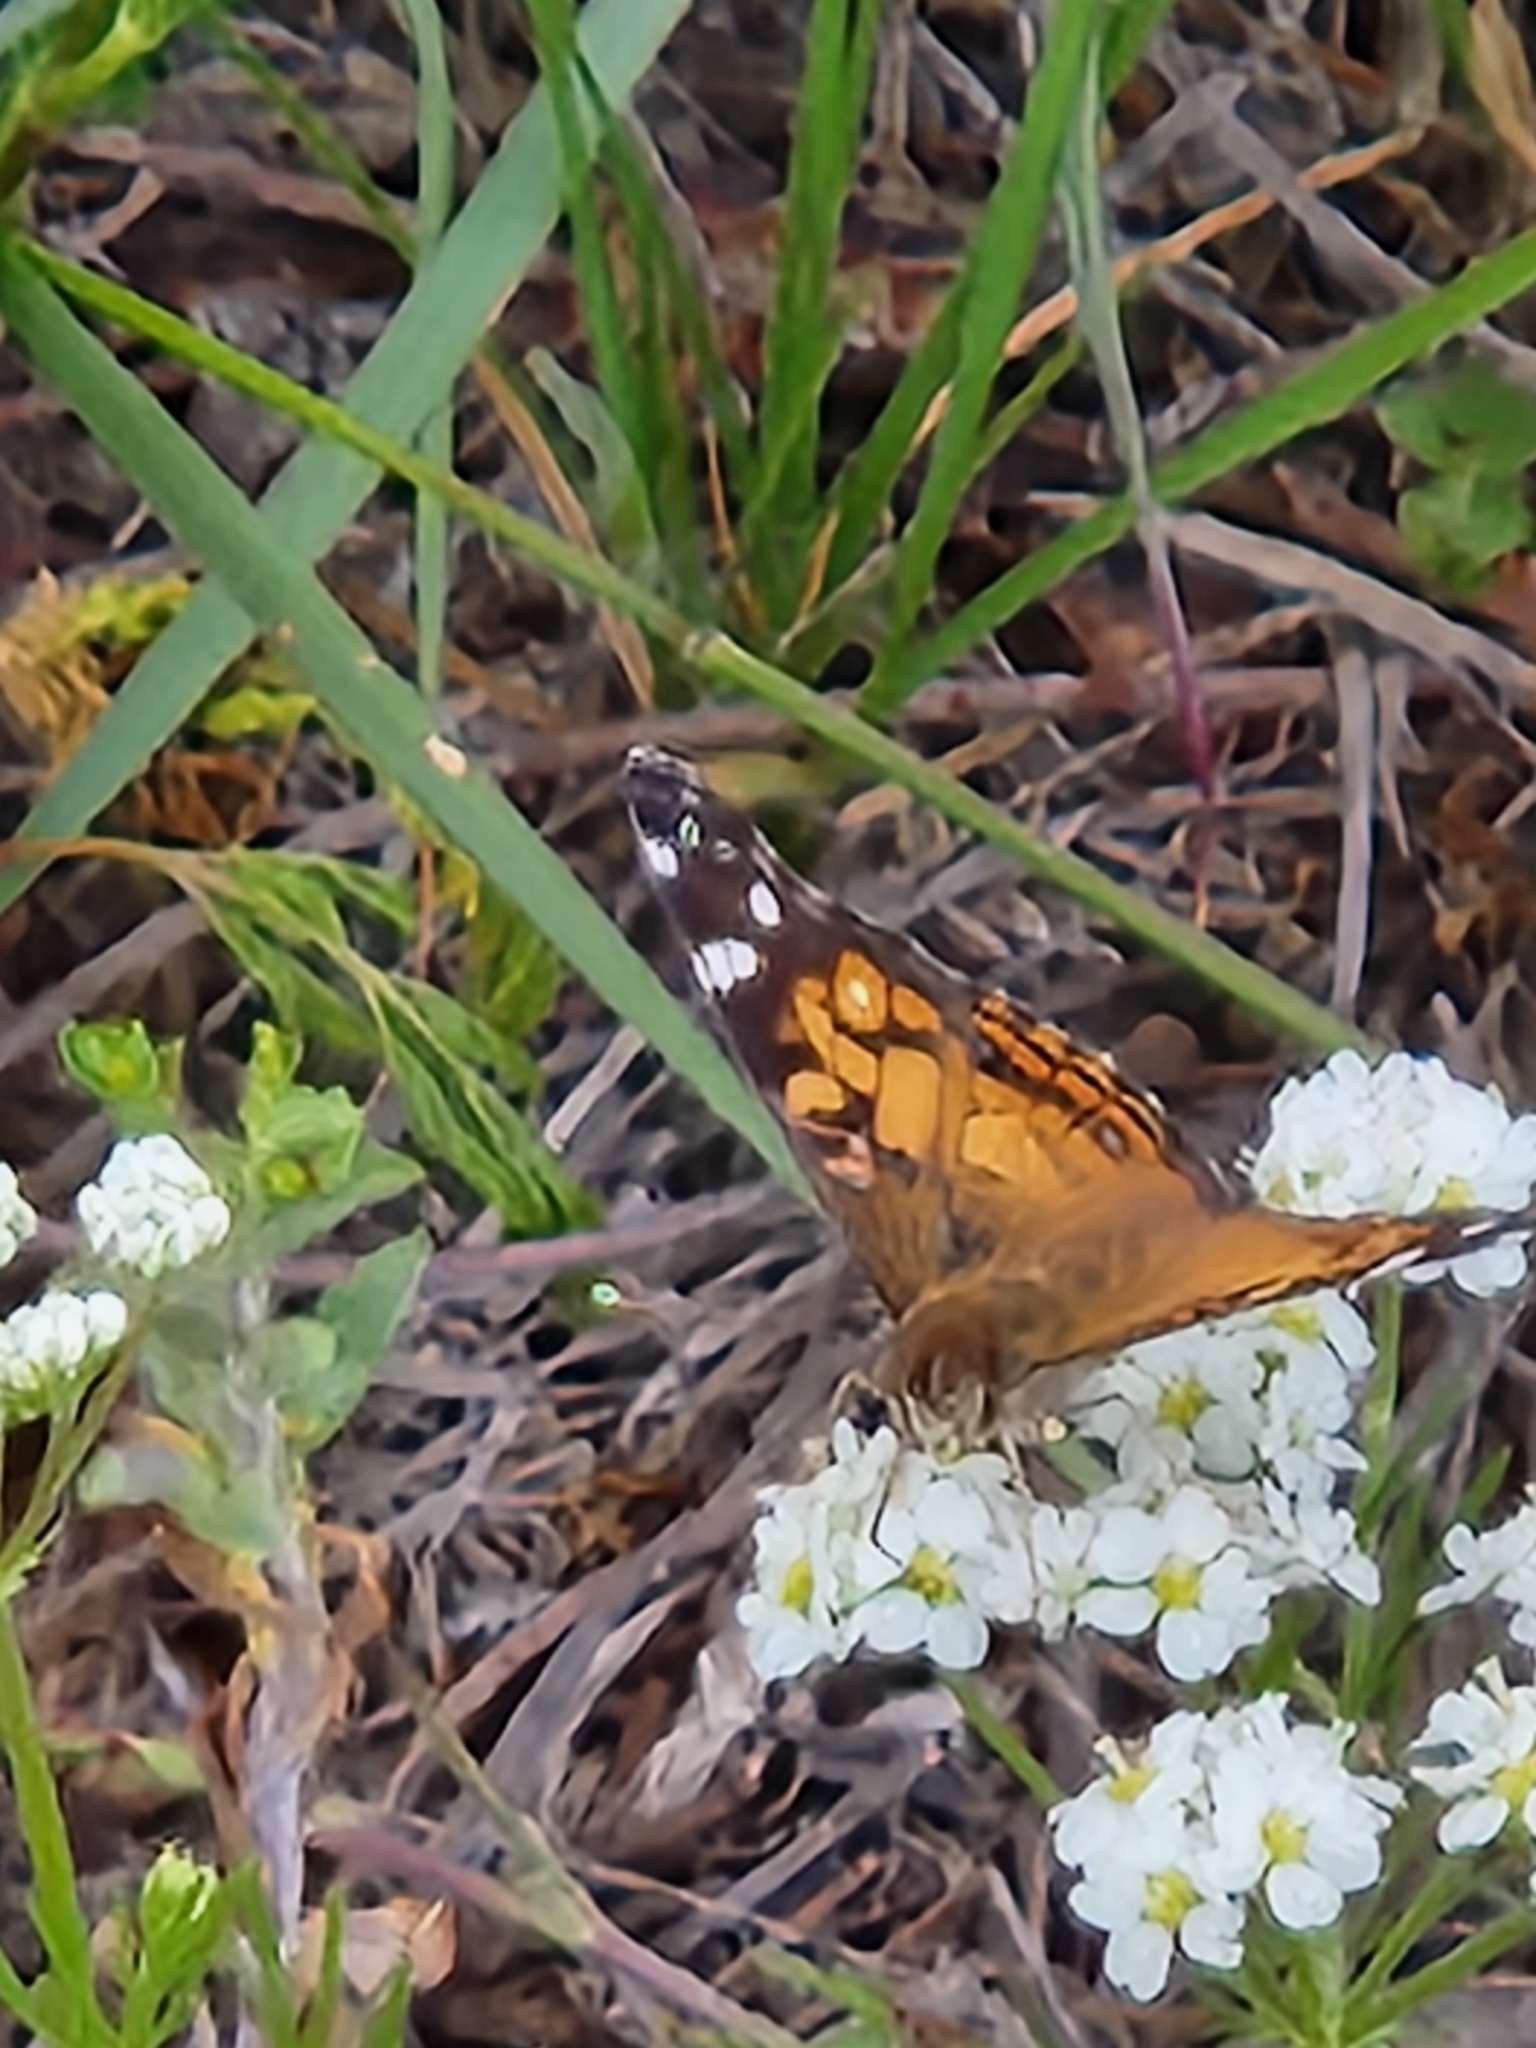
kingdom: Animalia
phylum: Arthropoda
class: Insecta
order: Lepidoptera
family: Nymphalidae
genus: Vanessa
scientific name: Vanessa virginiensis
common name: American lady
